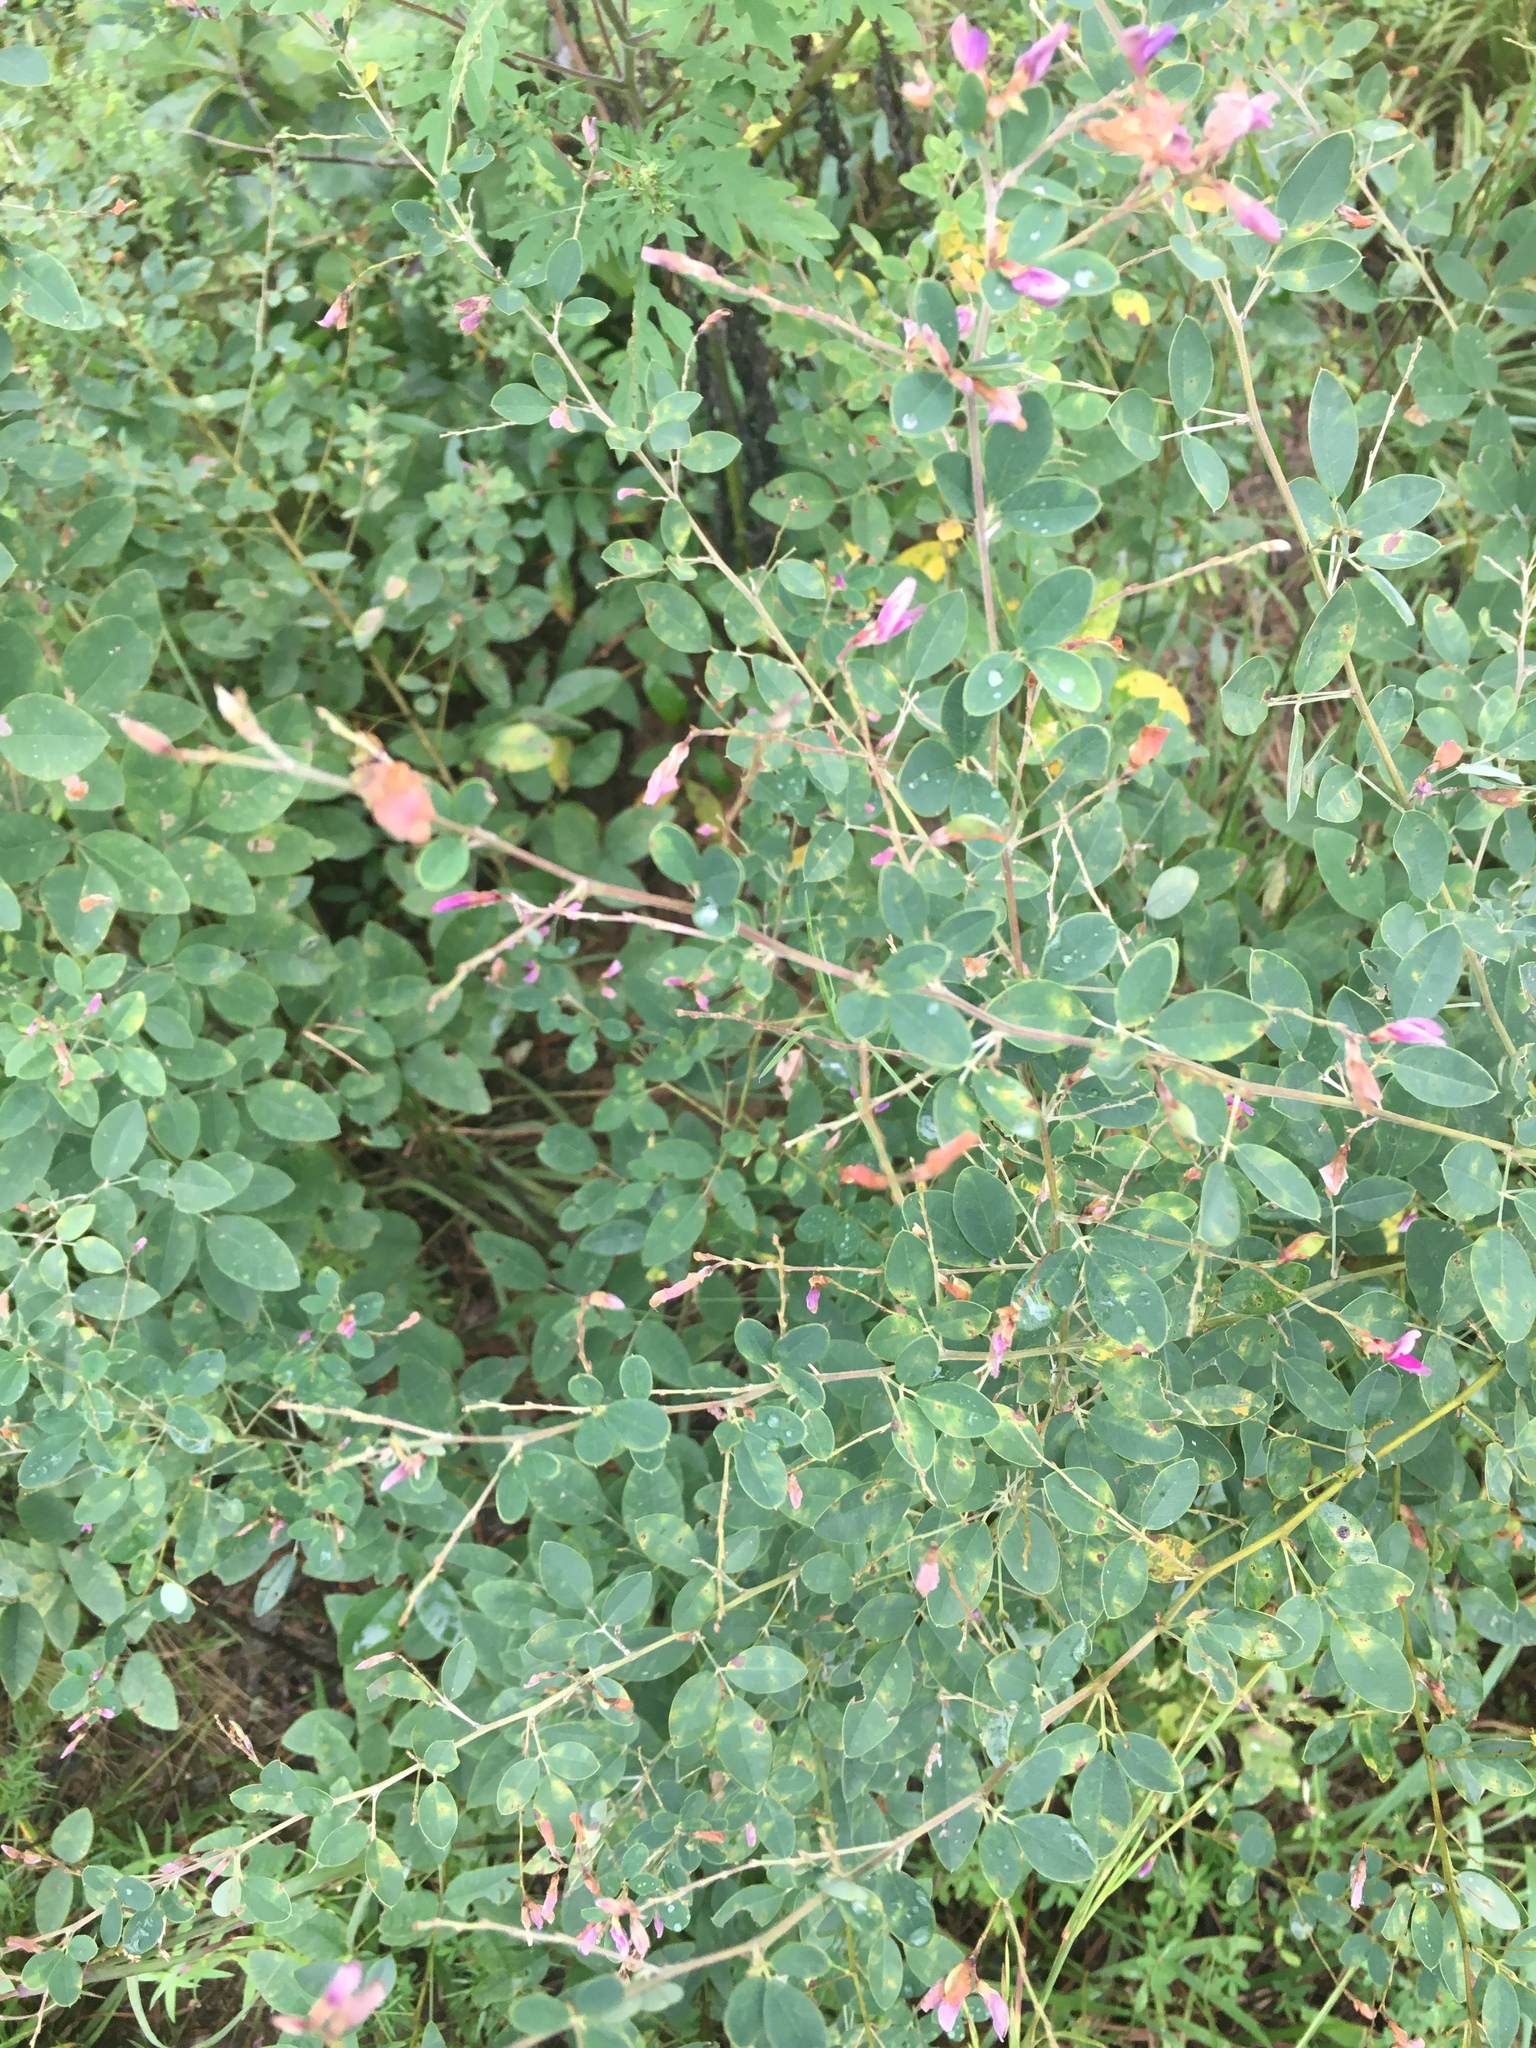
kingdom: Plantae
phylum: Tracheophyta
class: Magnoliopsida
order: Fabales
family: Fabaceae
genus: Lespedeza
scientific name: Lespedeza bicolor
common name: Shrub lespedeza
